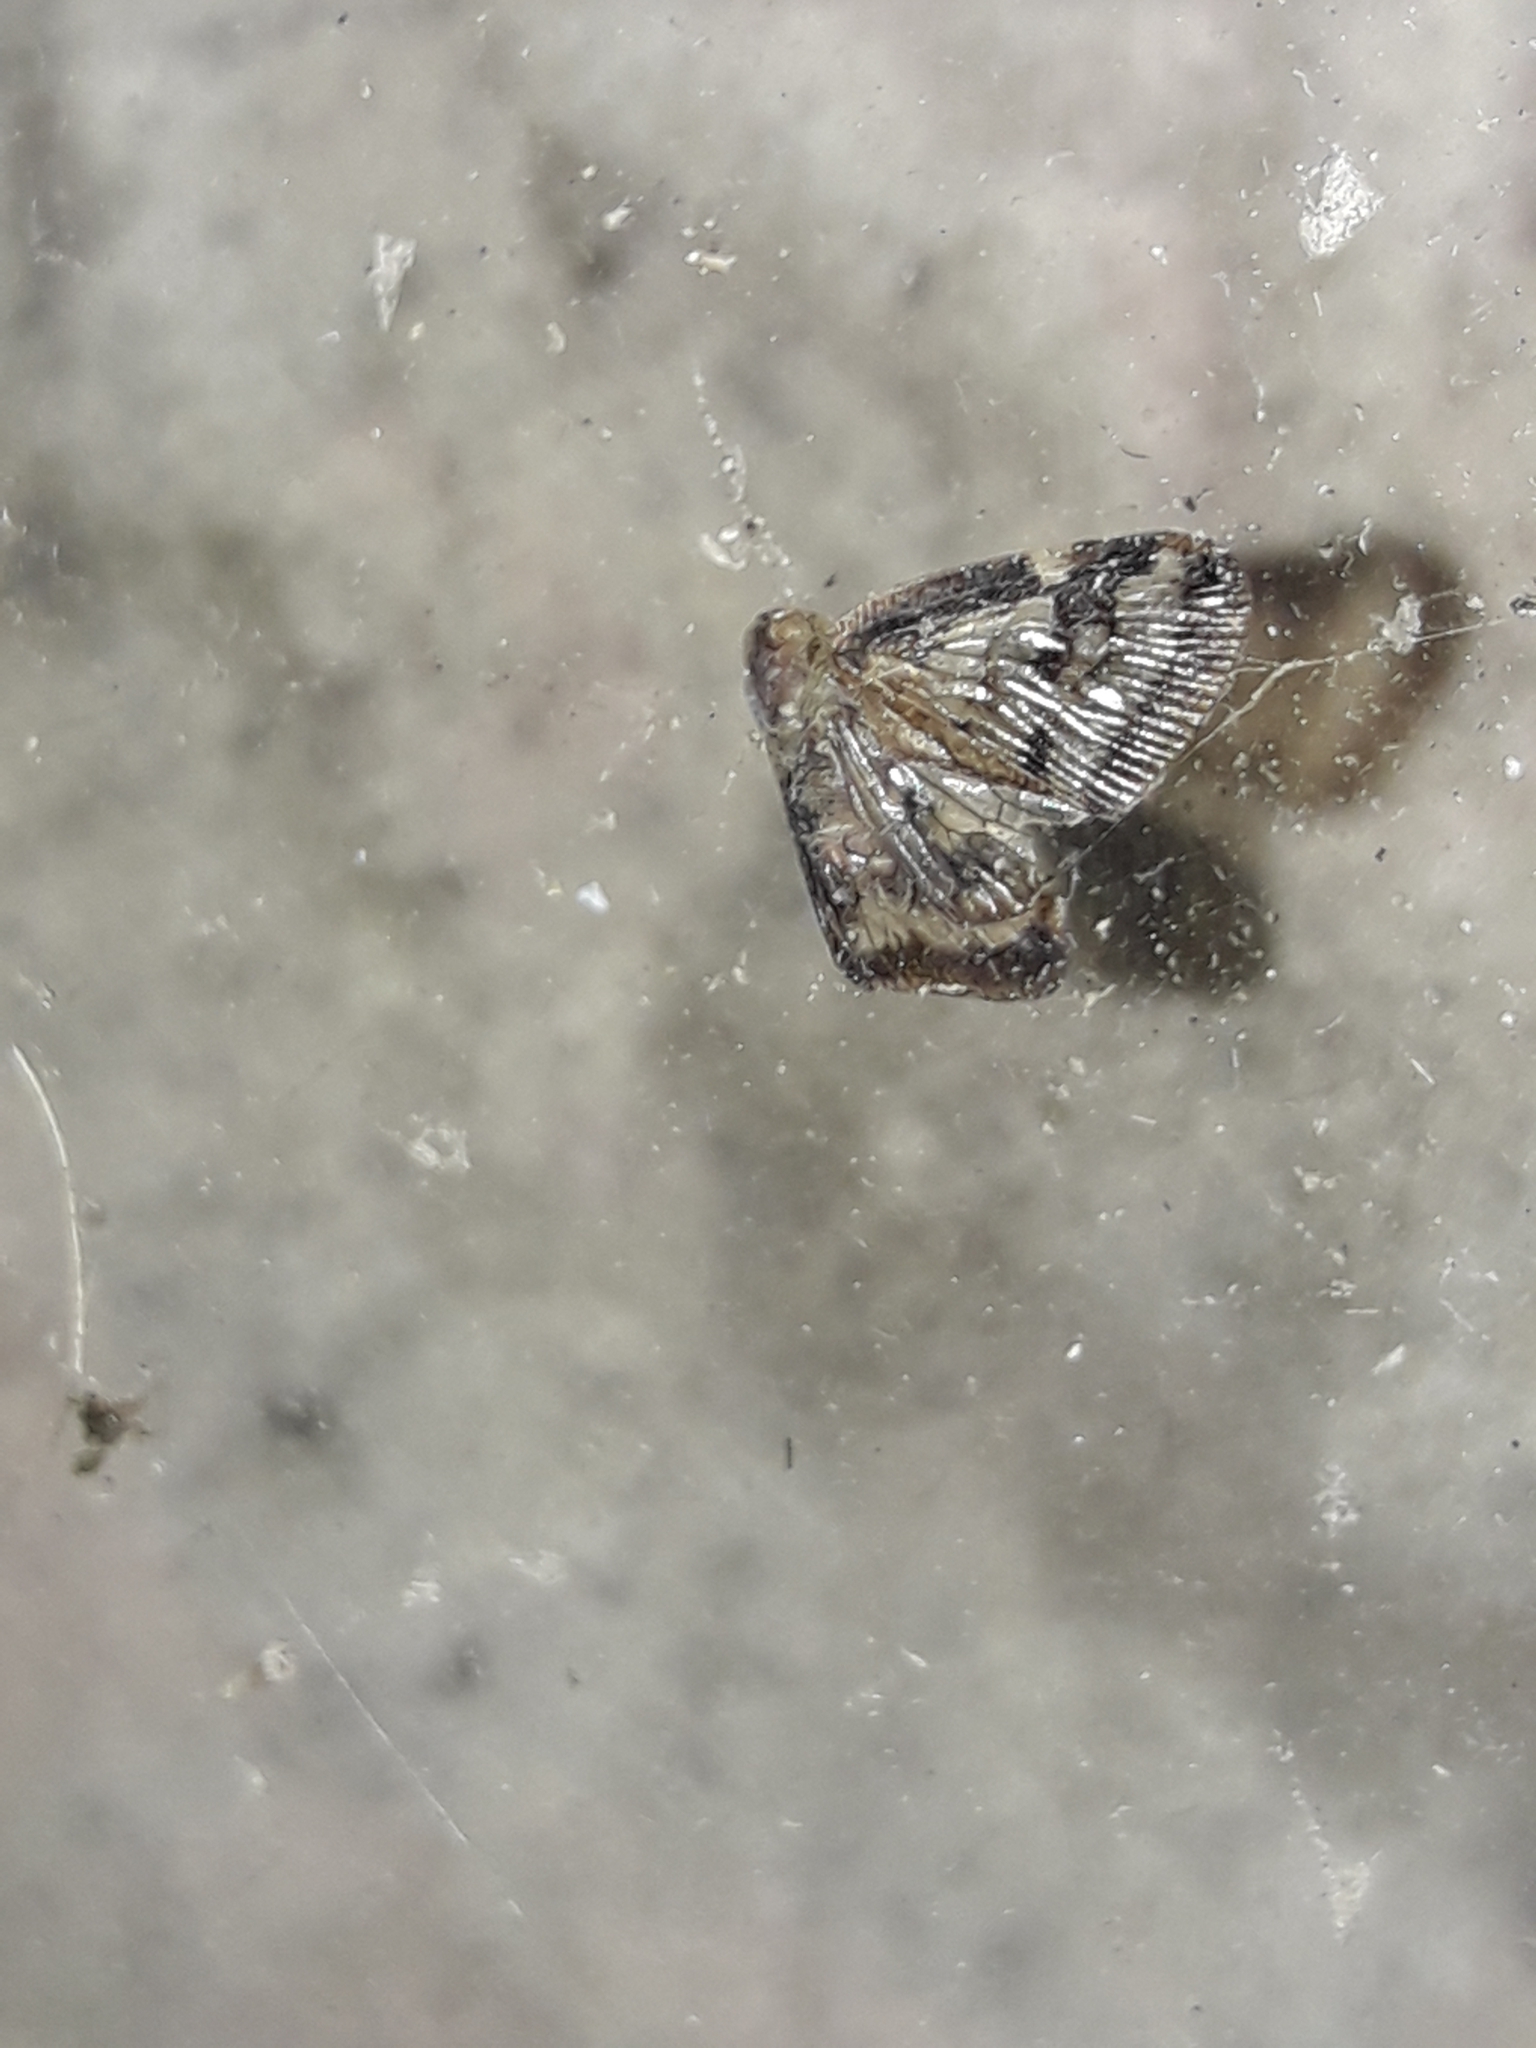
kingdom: Animalia
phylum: Arthropoda
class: Insecta
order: Hemiptera
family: Ricaniidae
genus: Scolypopa
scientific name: Scolypopa australis
